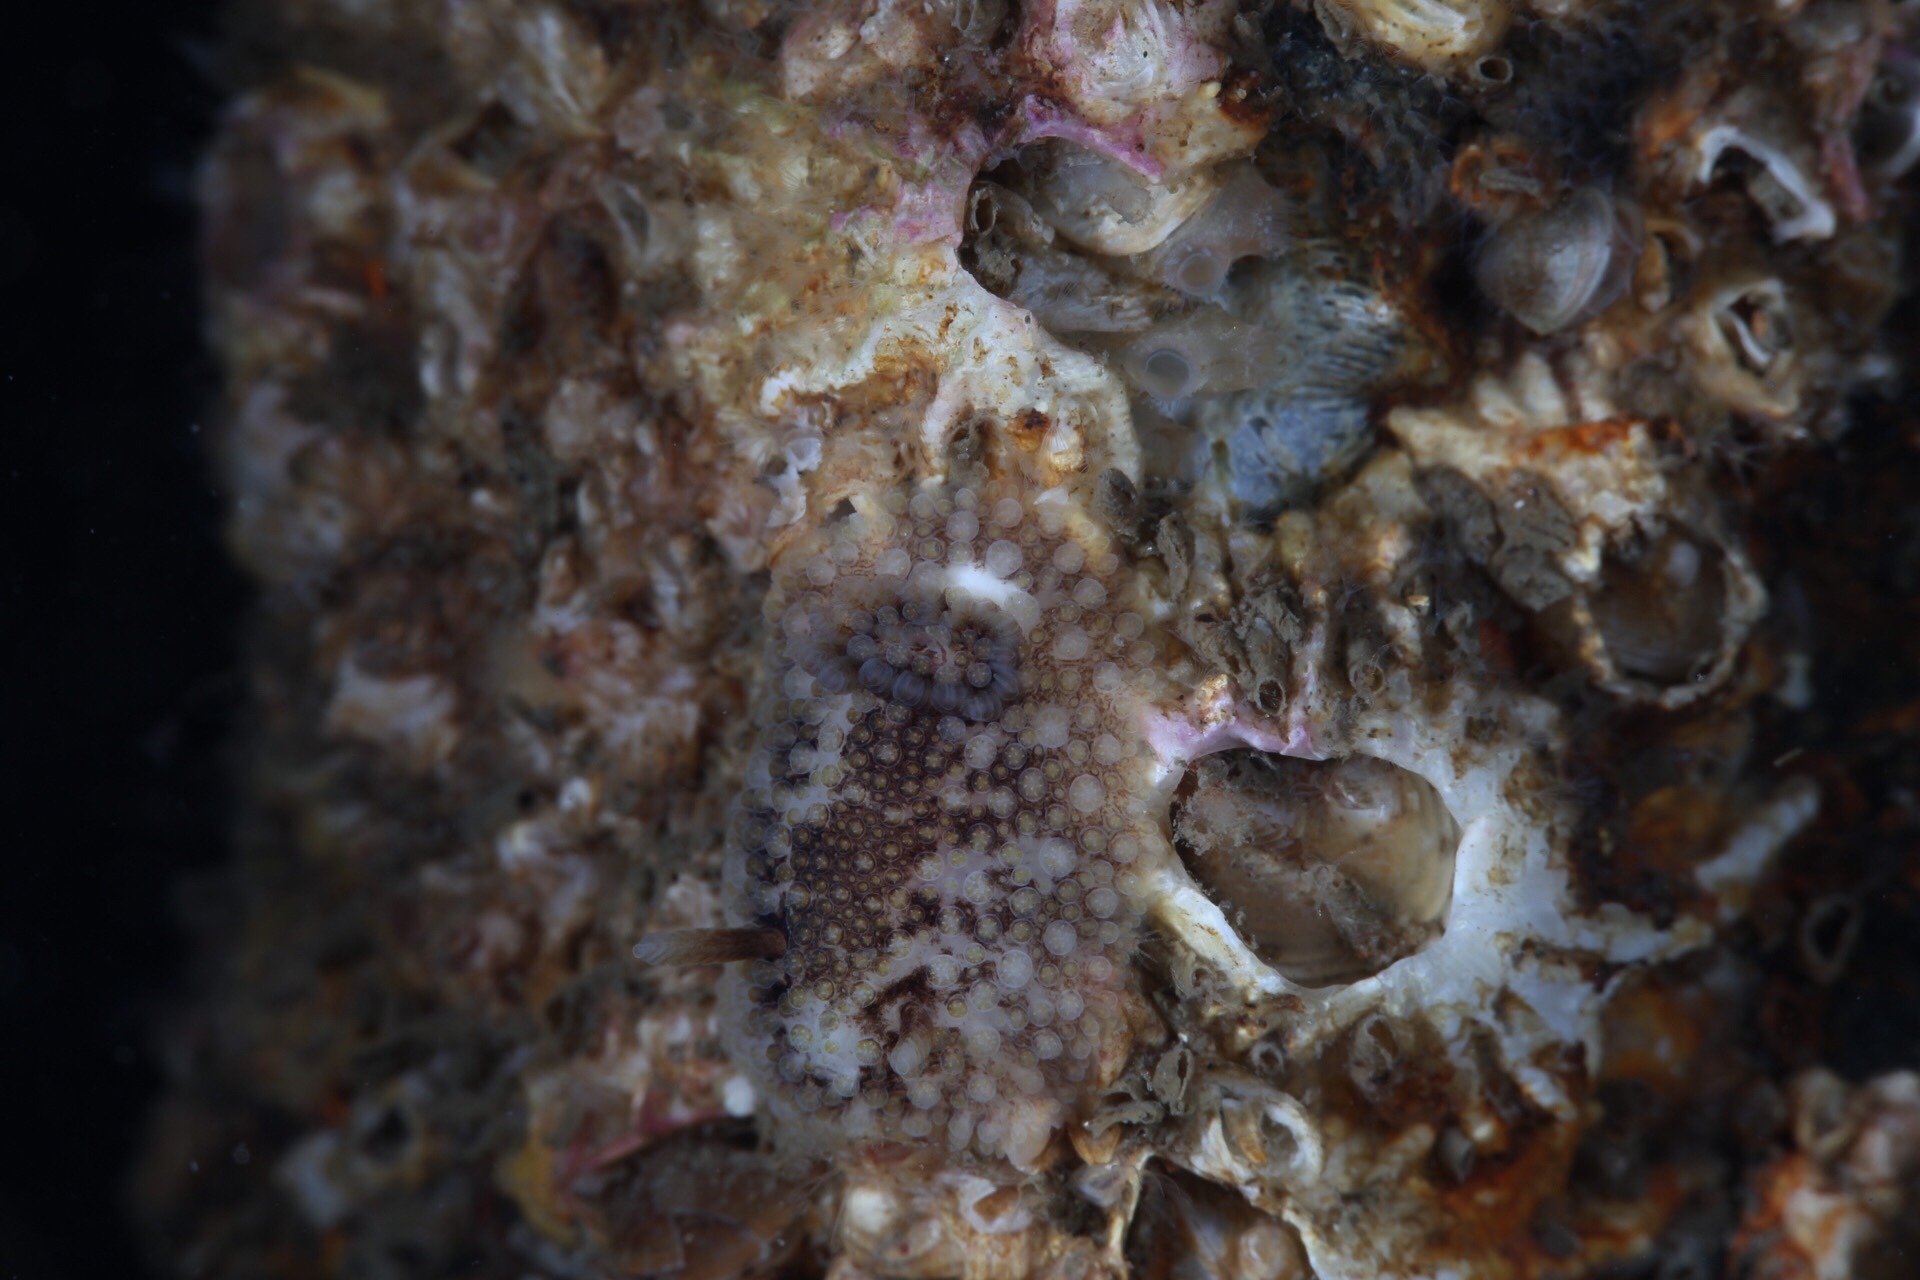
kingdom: Animalia
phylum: Mollusca
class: Gastropoda
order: Nudibranchia
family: Onchidorididae
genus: Onchidoris
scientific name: Onchidoris bilamellata
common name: Barnacle-eating onchidoris
